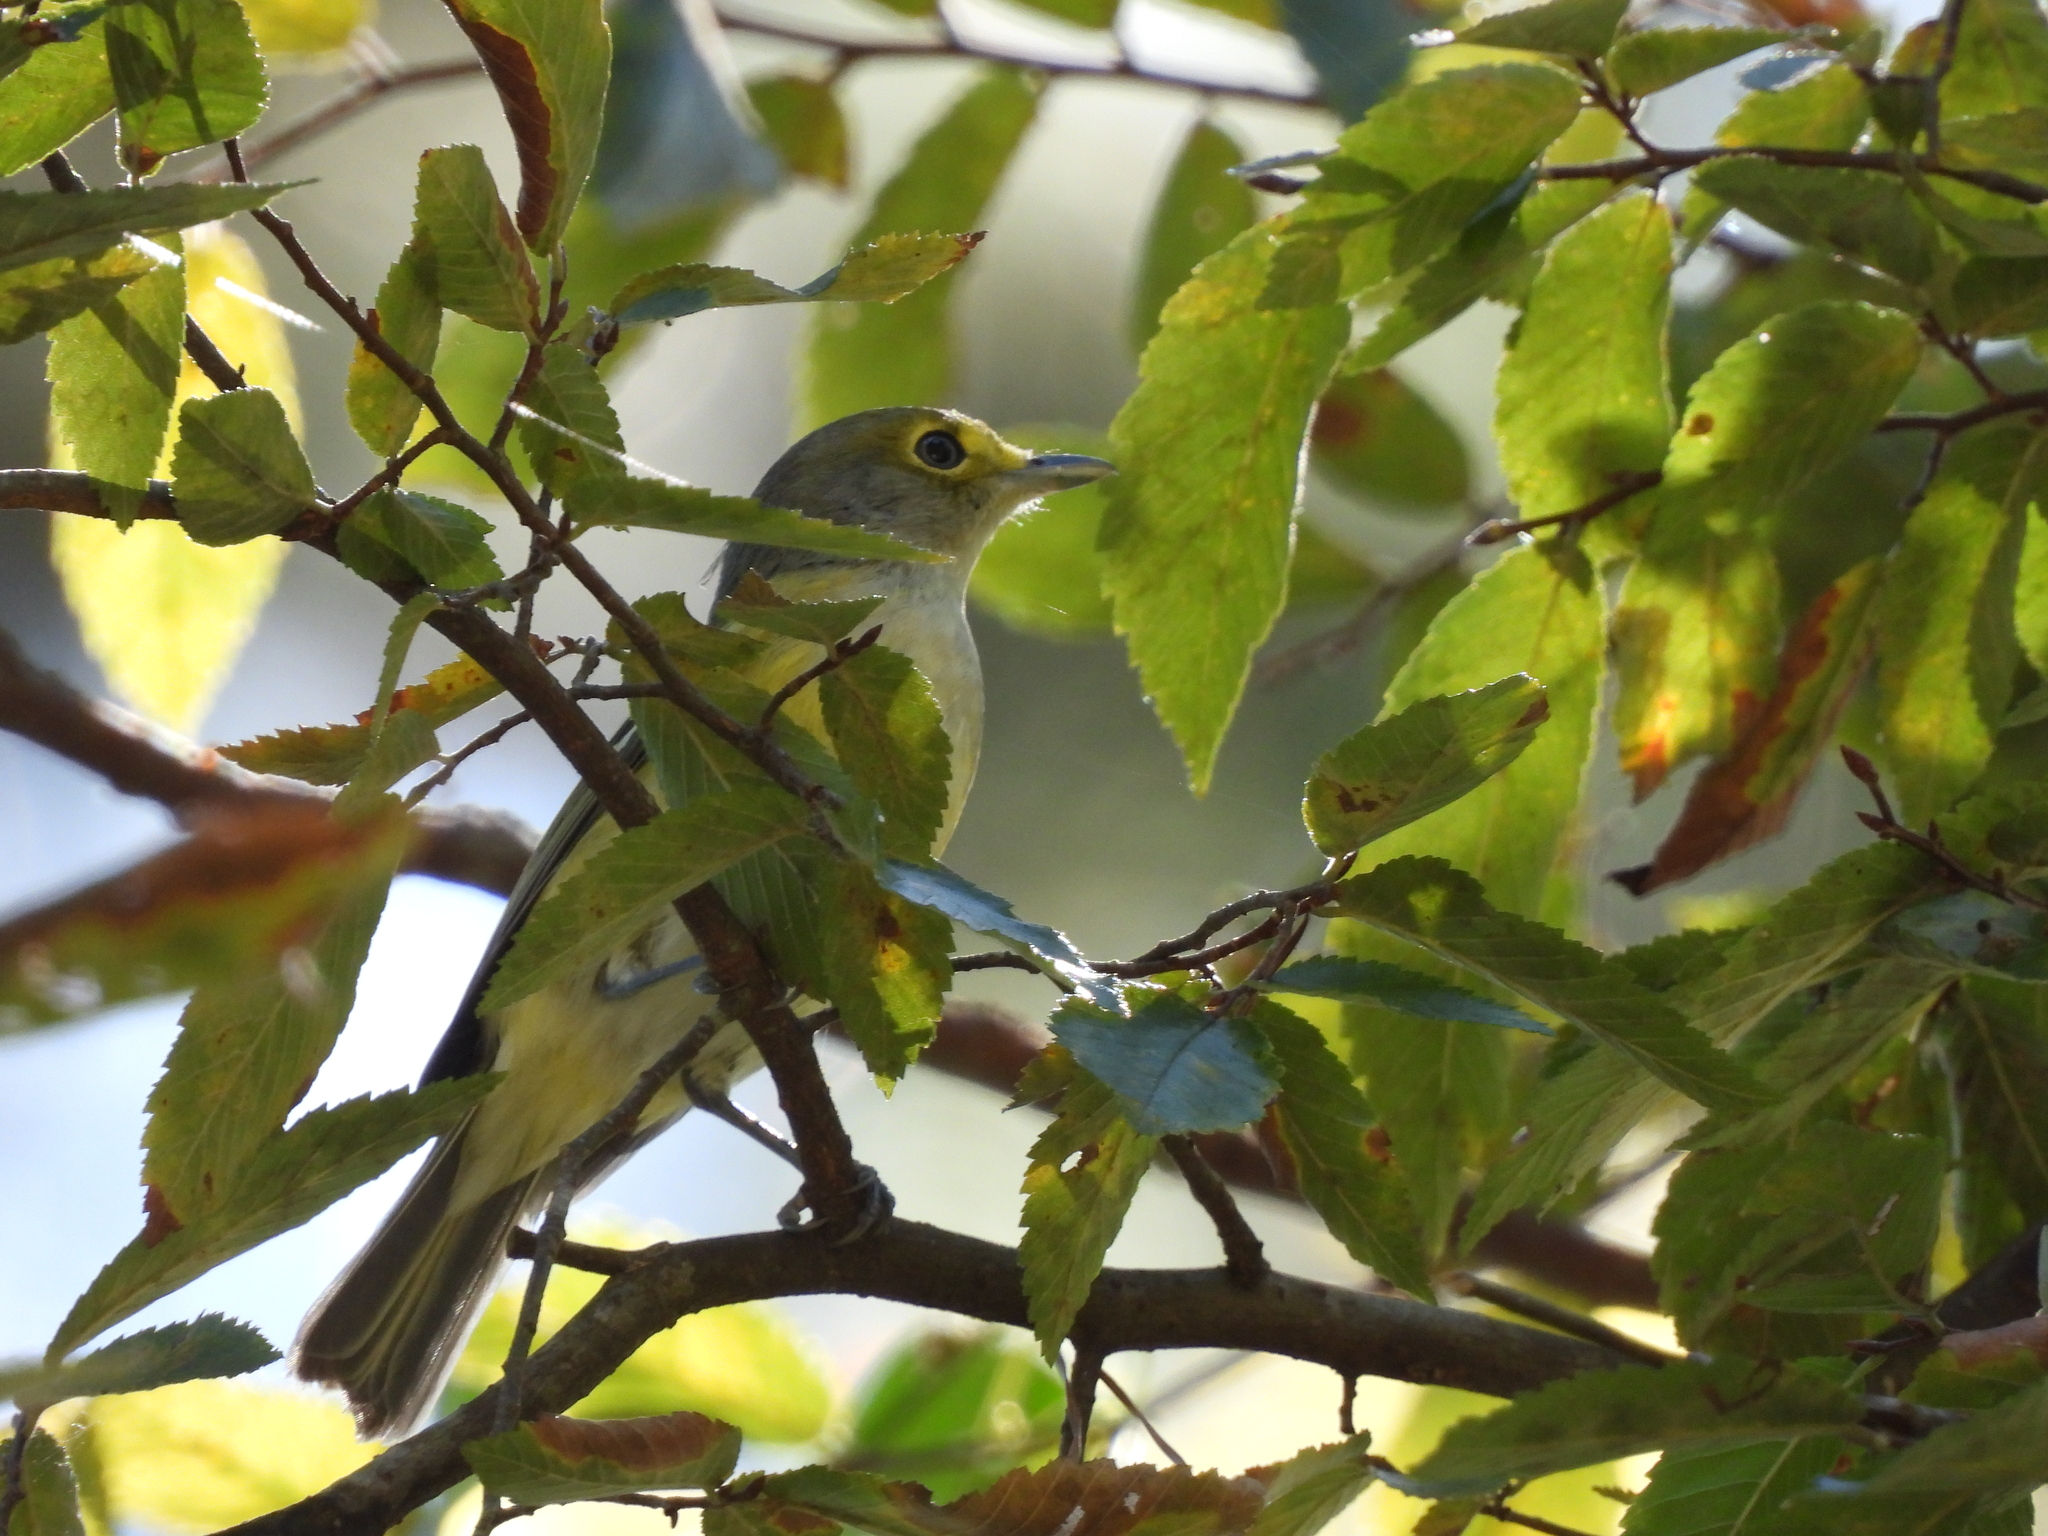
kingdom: Animalia
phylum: Chordata
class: Aves
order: Passeriformes
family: Vireonidae
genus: Vireo
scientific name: Vireo griseus
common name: White-eyed vireo
